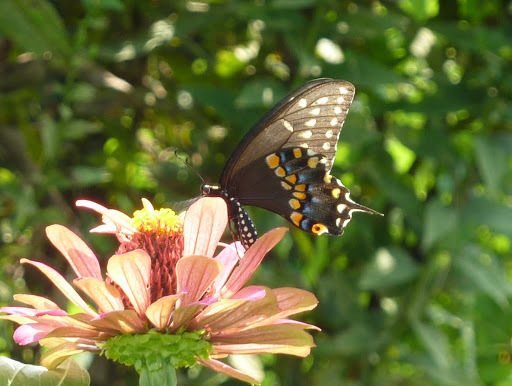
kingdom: Animalia
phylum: Arthropoda
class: Insecta
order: Lepidoptera
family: Papilionidae
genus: Papilio
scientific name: Papilio polyxenes
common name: Black swallowtail
